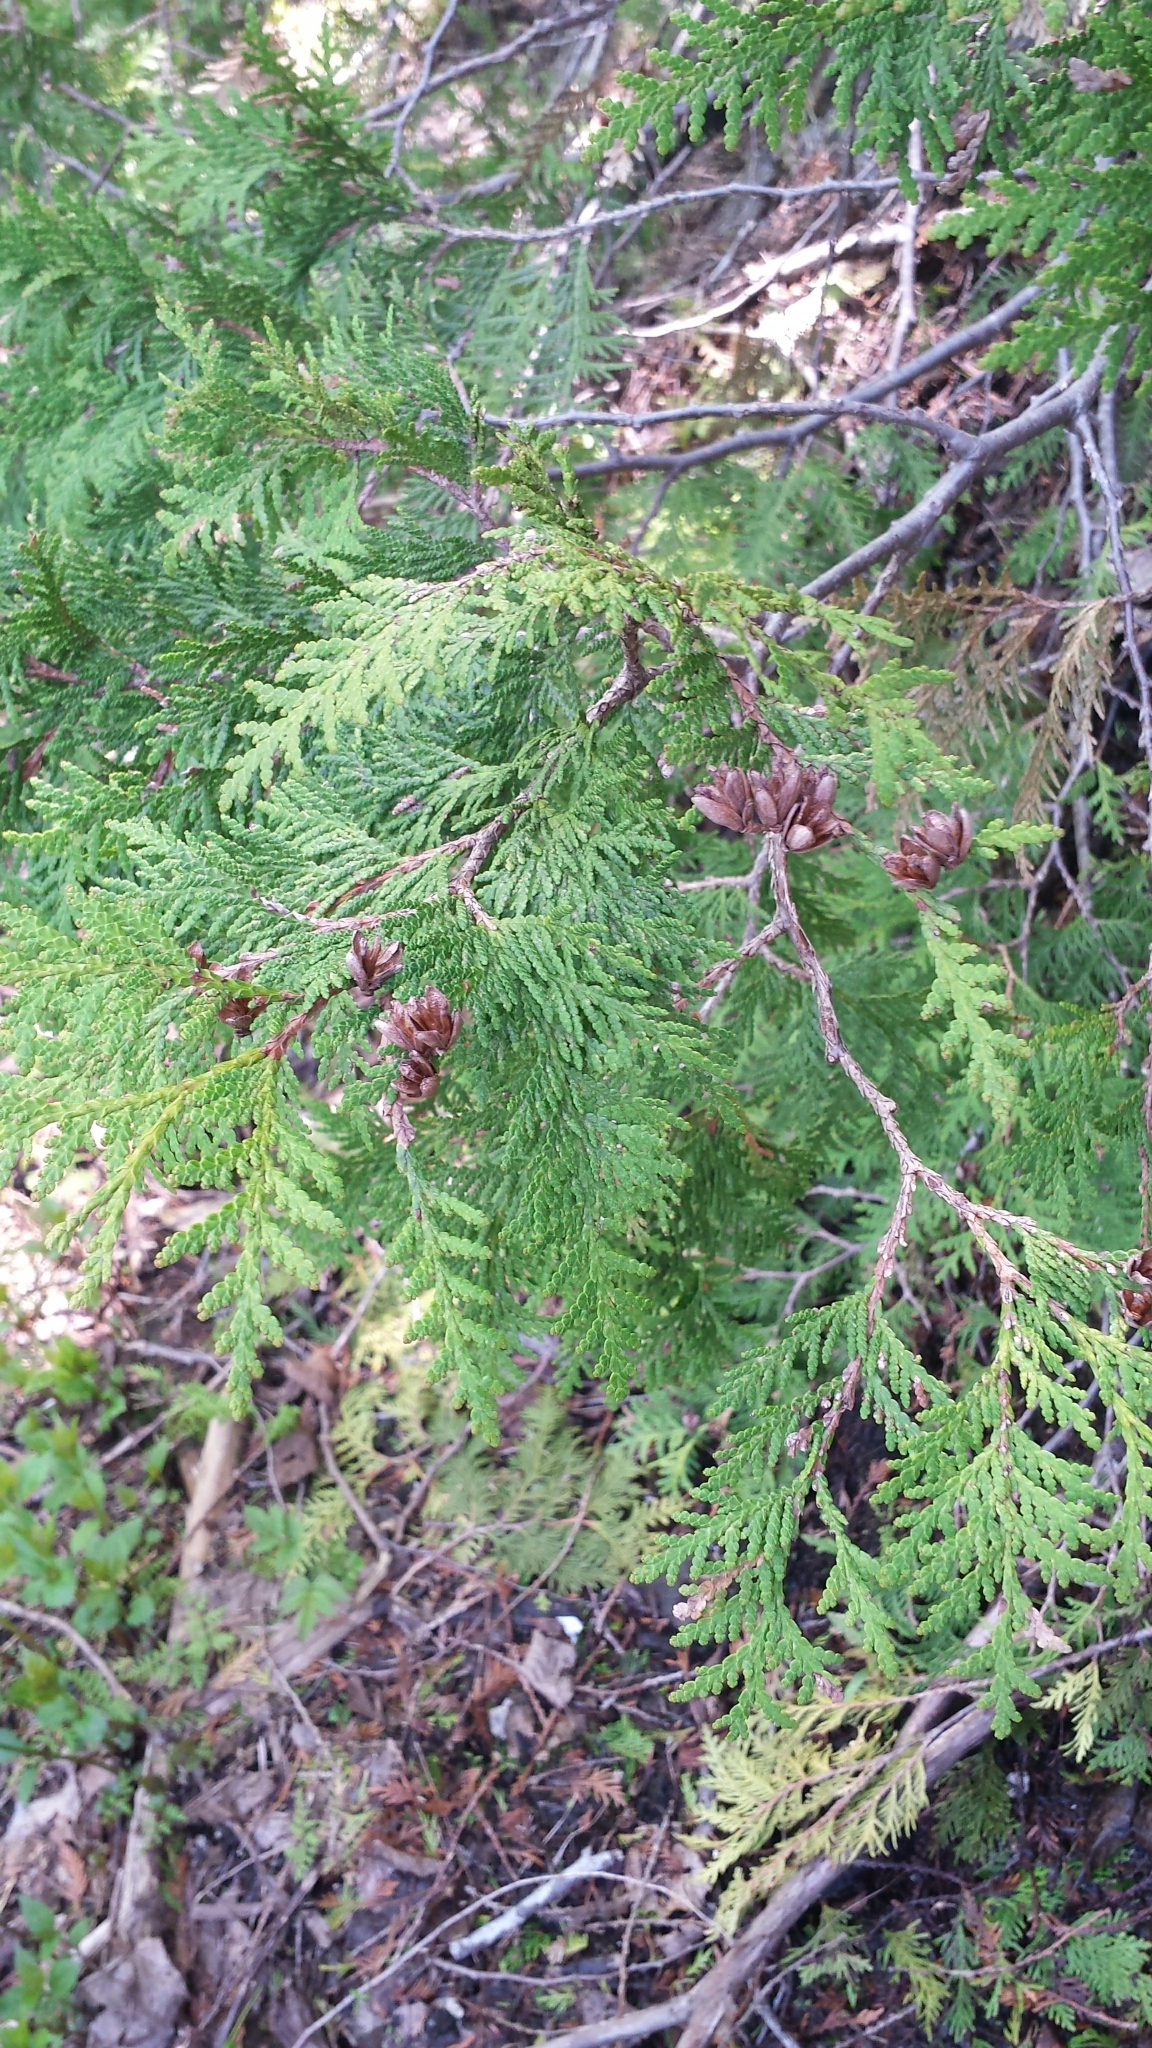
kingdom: Plantae
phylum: Tracheophyta
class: Pinopsida
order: Pinales
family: Cupressaceae
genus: Thuja
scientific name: Thuja occidentalis
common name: Northern white-cedar
